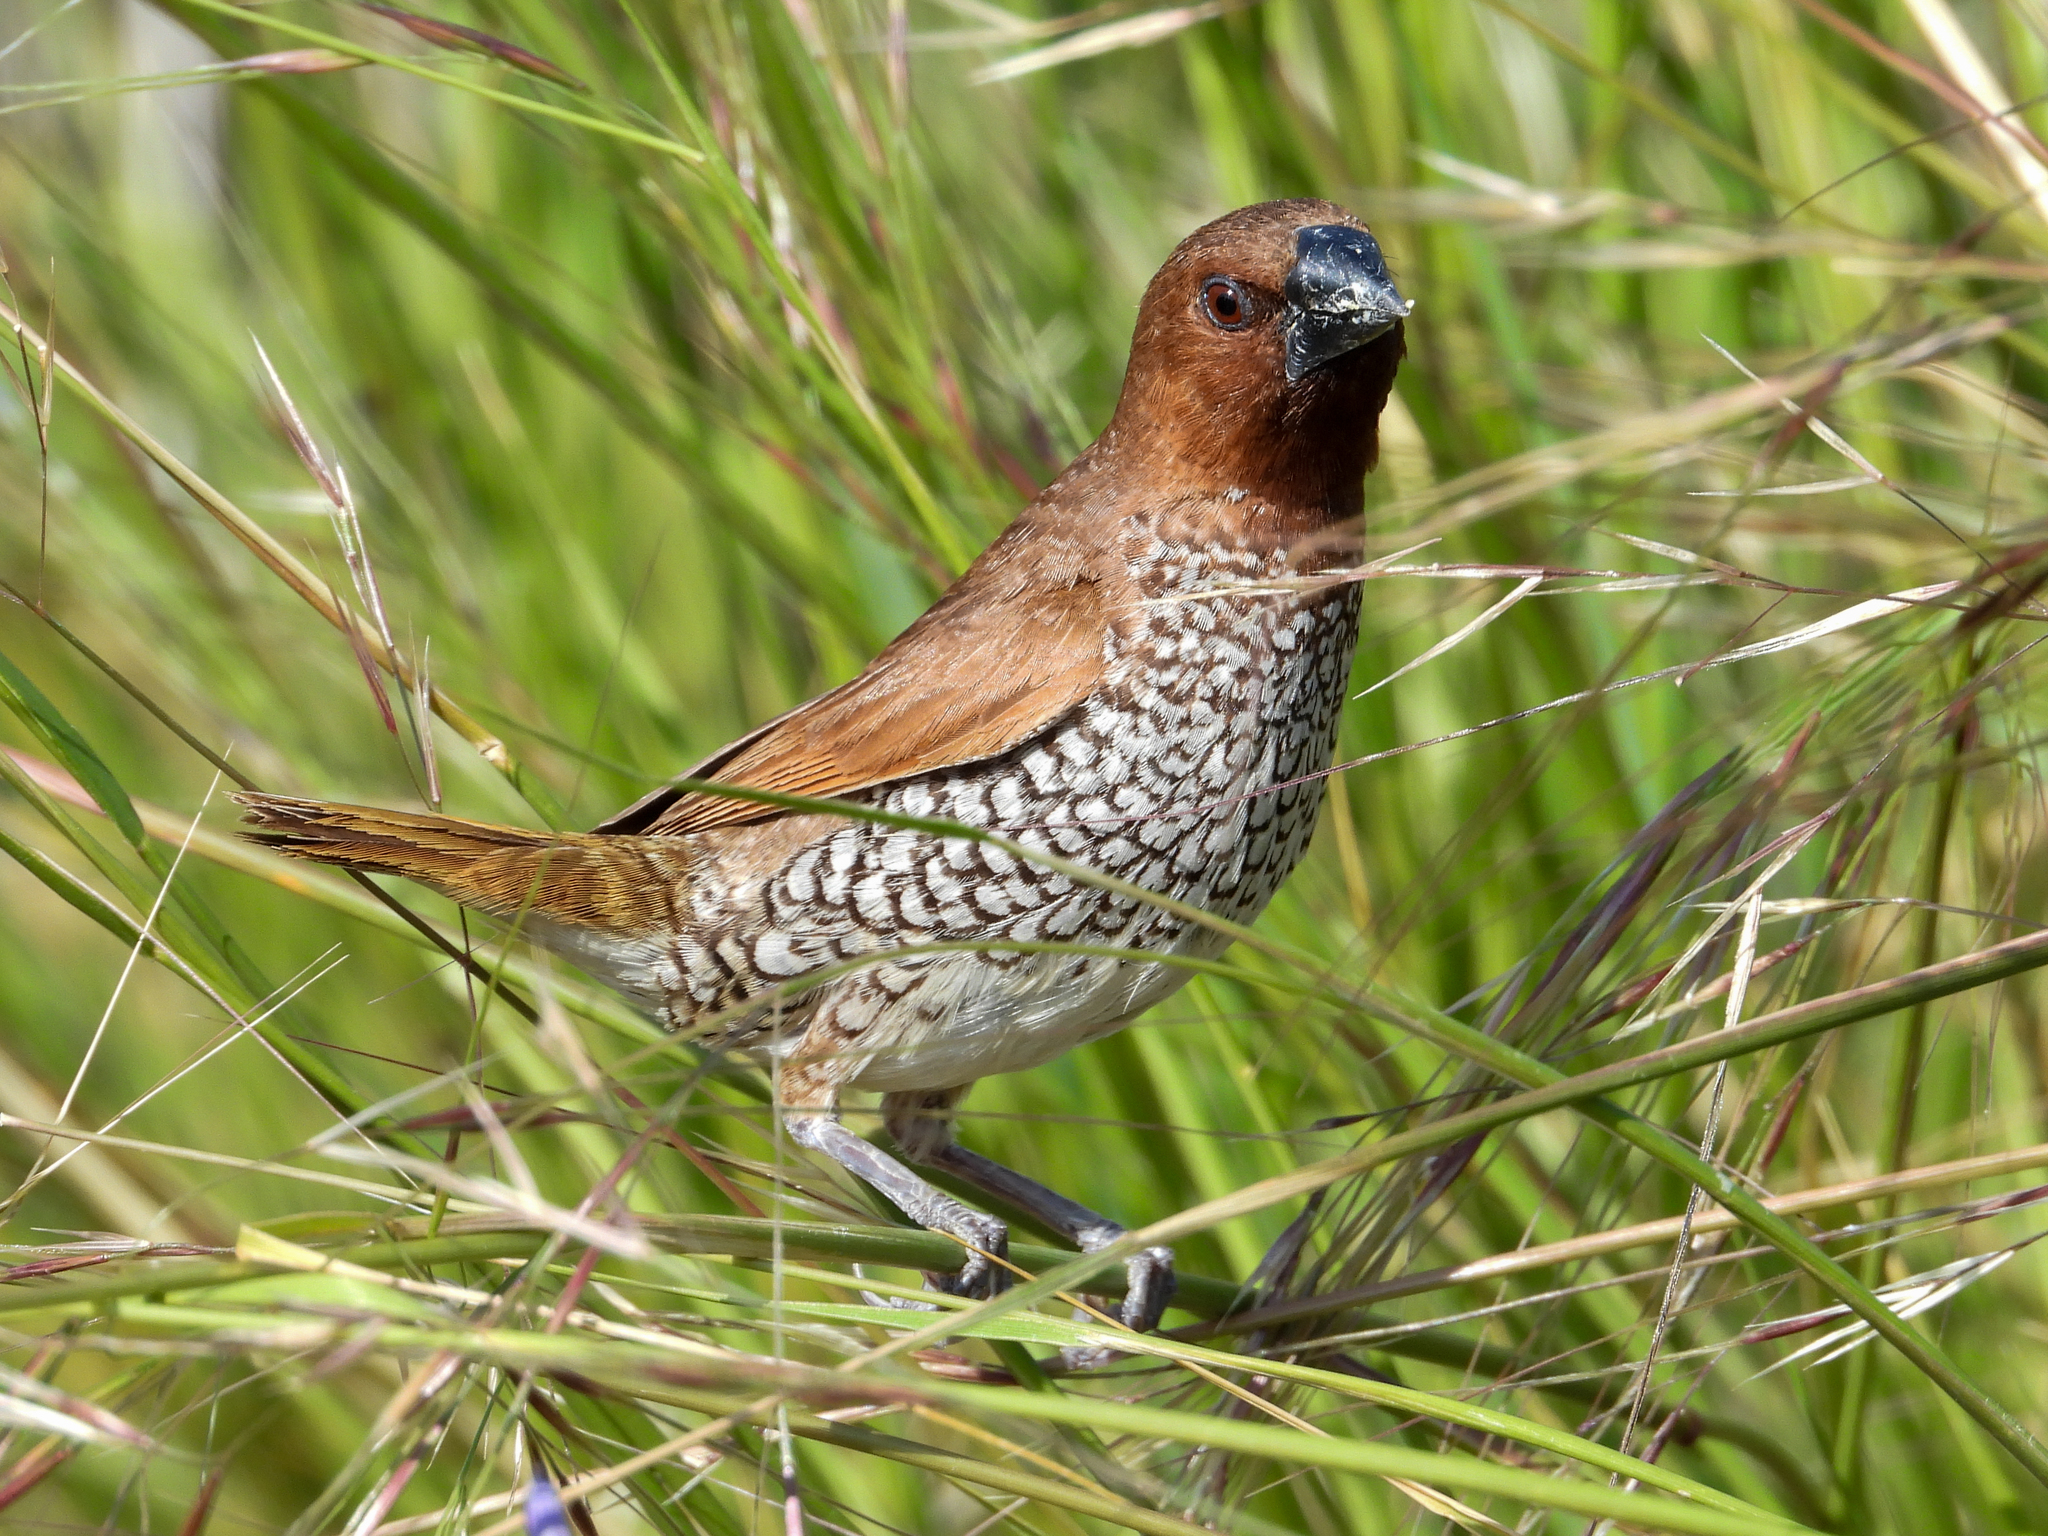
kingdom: Animalia
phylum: Chordata
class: Aves
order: Passeriformes
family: Estrildidae
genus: Lonchura
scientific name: Lonchura punctulata
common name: Scaly-breasted munia
